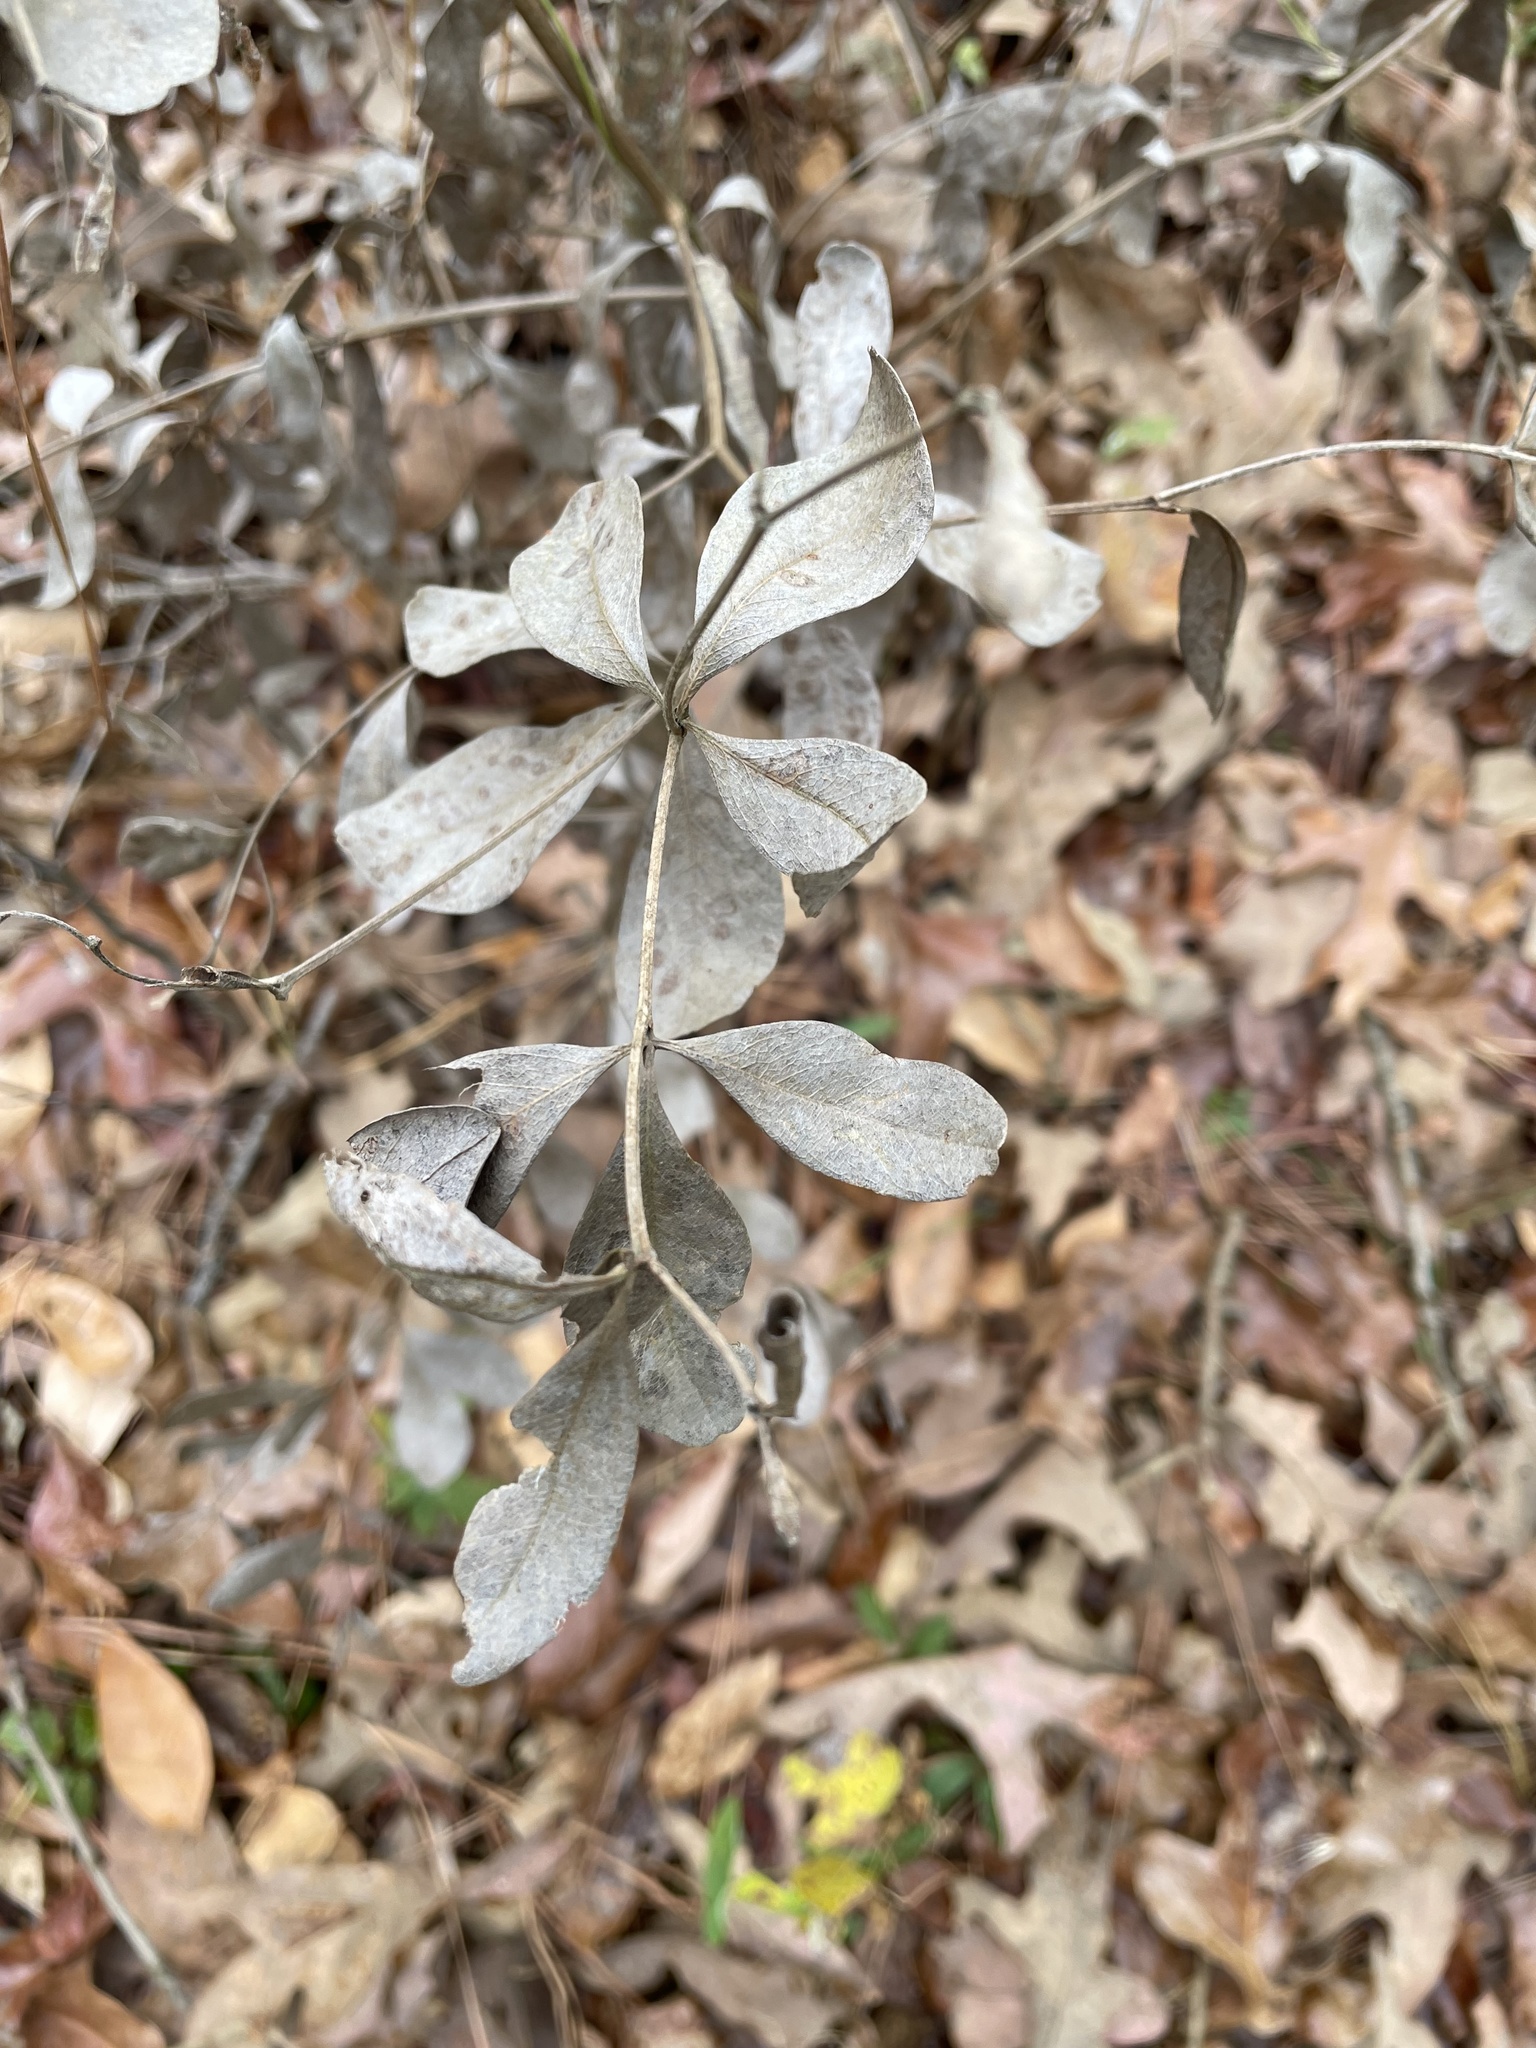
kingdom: Plantae
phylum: Tracheophyta
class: Magnoliopsida
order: Fabales
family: Fabaceae
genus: Baptisia
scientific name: Baptisia bracteata
